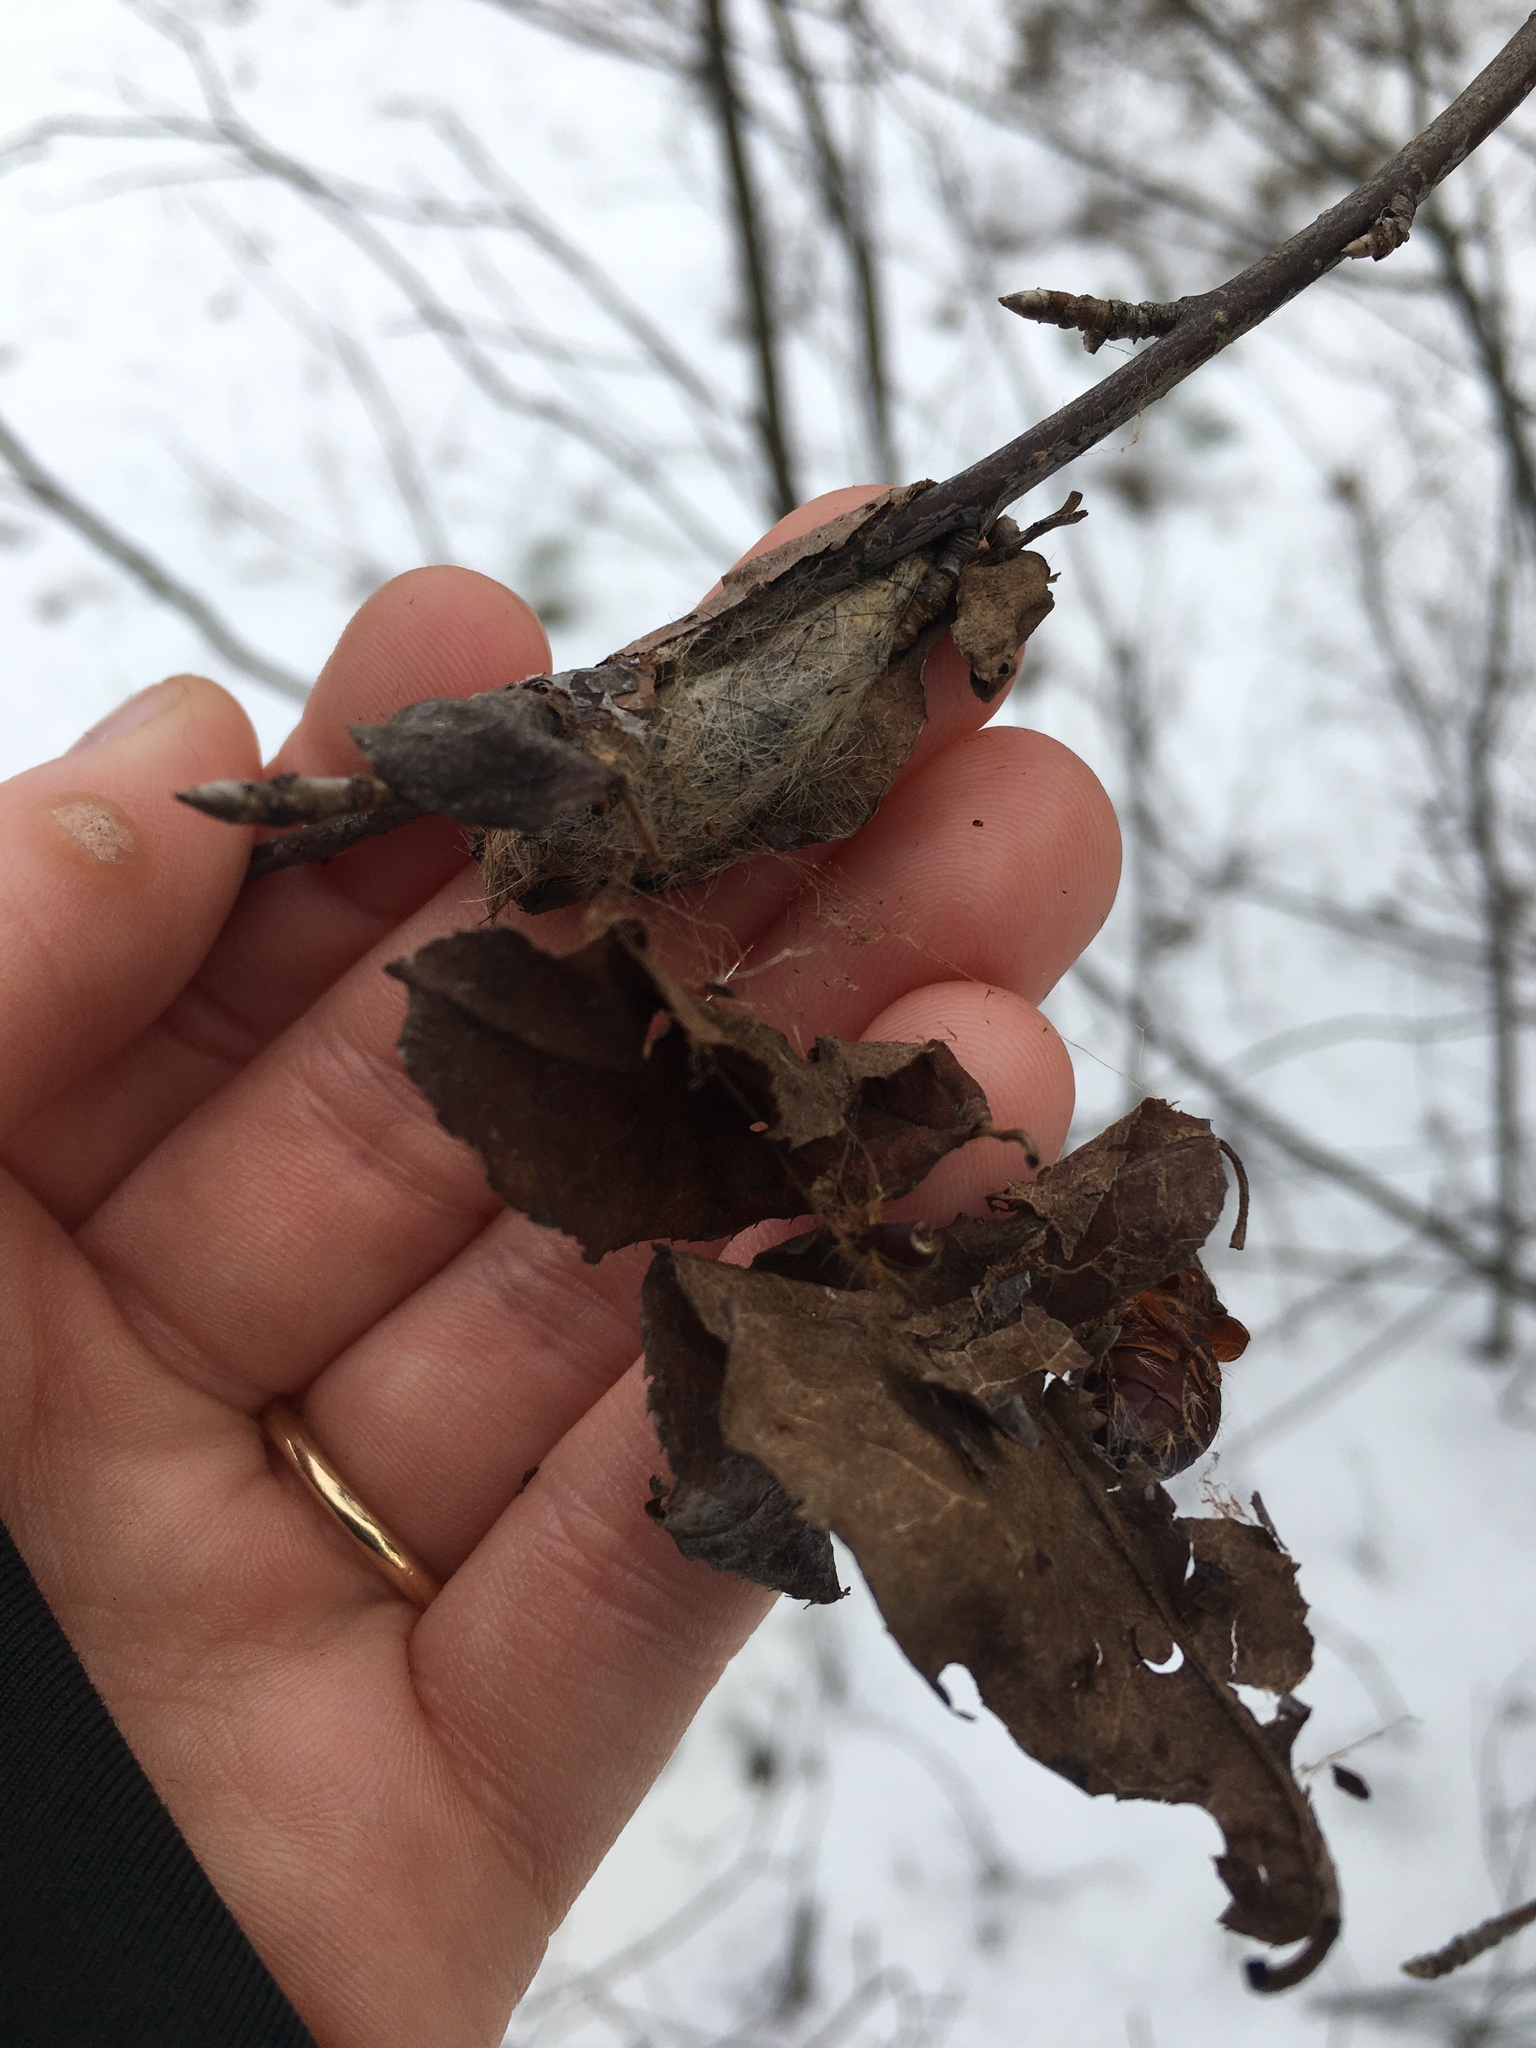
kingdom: Animalia
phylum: Arthropoda
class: Insecta
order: Lepidoptera
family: Erebidae
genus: Lymantria
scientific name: Lymantria dispar
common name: Gypsy moth
